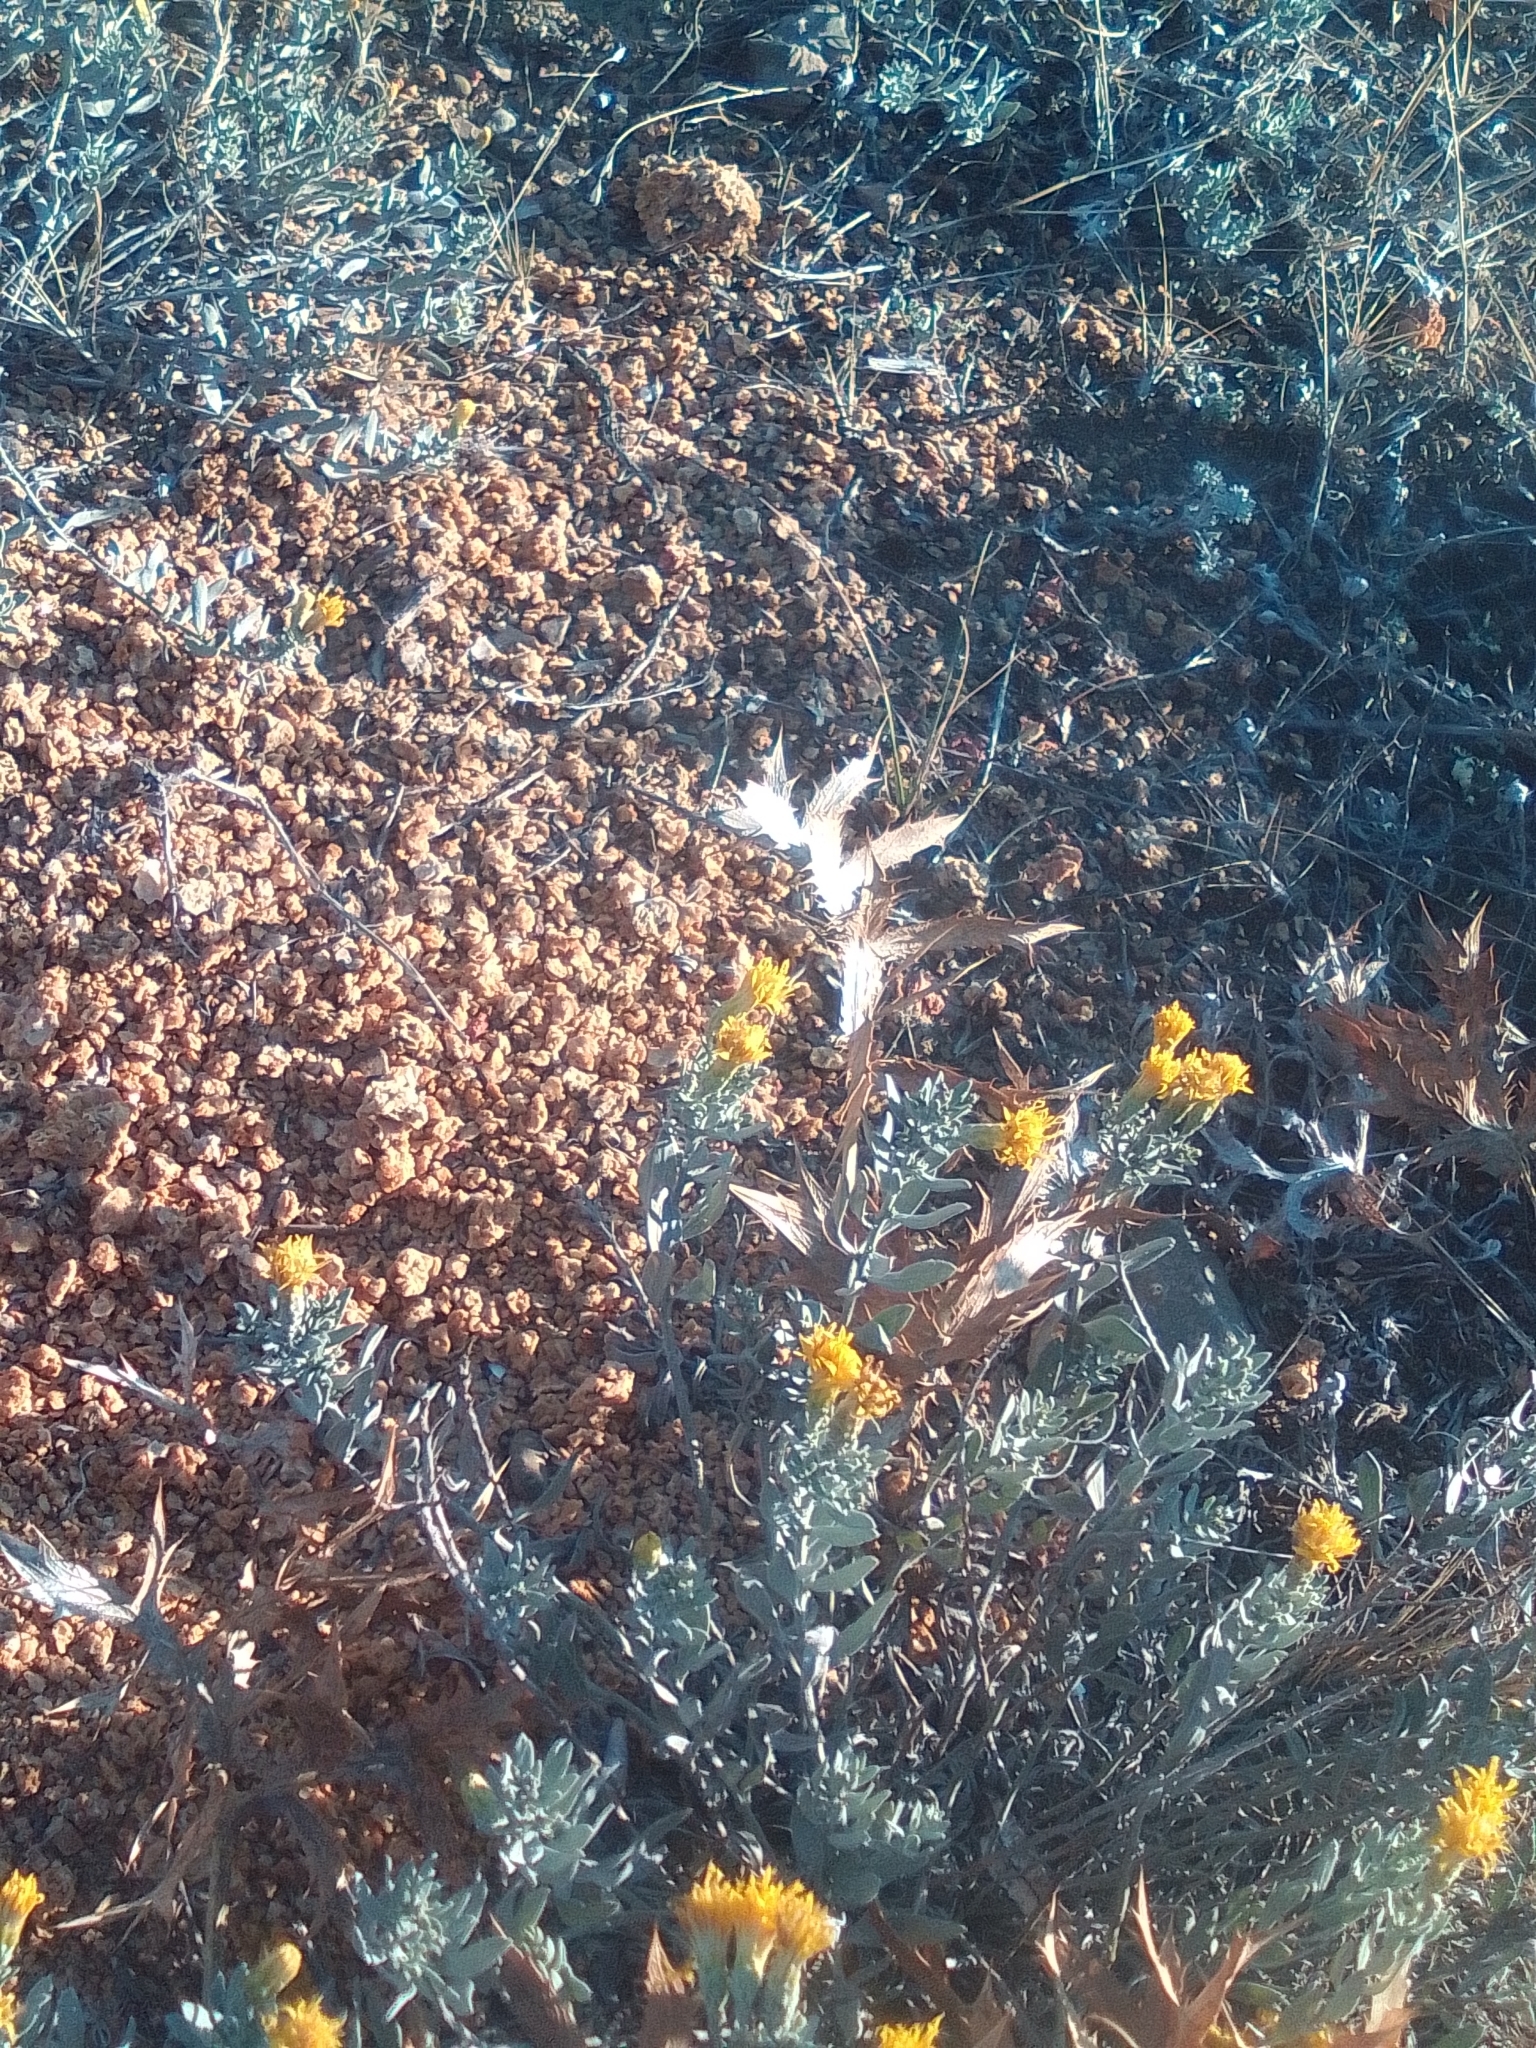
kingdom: Plantae
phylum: Tracheophyta
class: Magnoliopsida
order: Asterales
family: Asteraceae
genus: Galatella
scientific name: Galatella villosa
